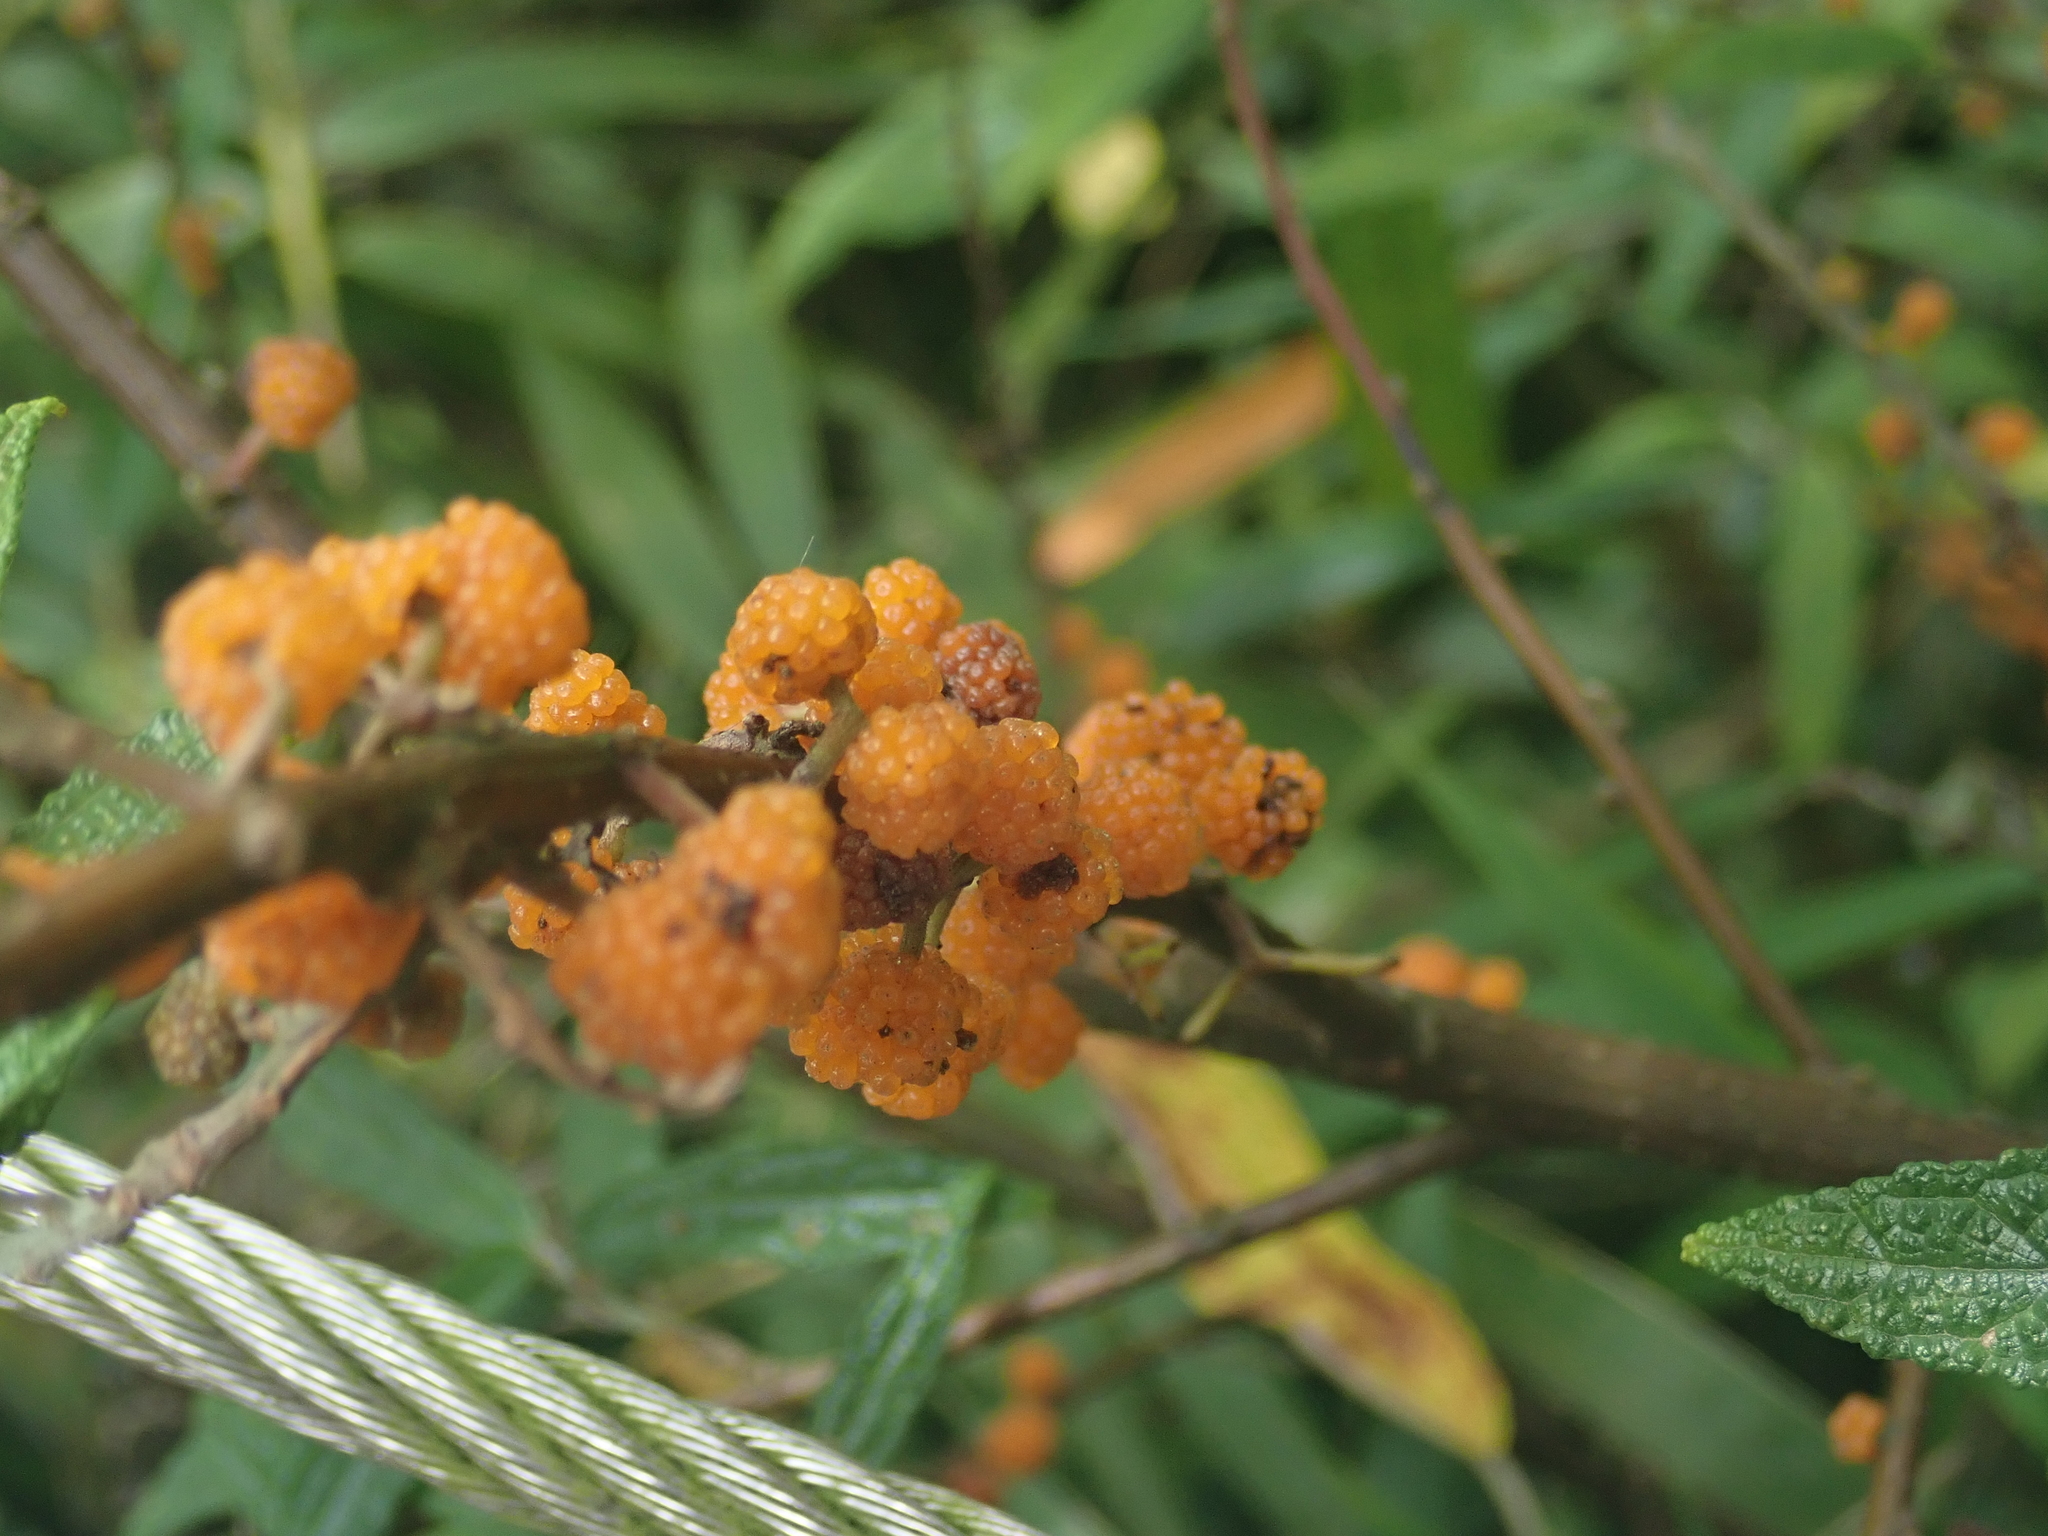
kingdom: Plantae
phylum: Tracheophyta
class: Magnoliopsida
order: Rosales
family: Urticaceae
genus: Debregeasia
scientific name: Debregeasia orientalis
